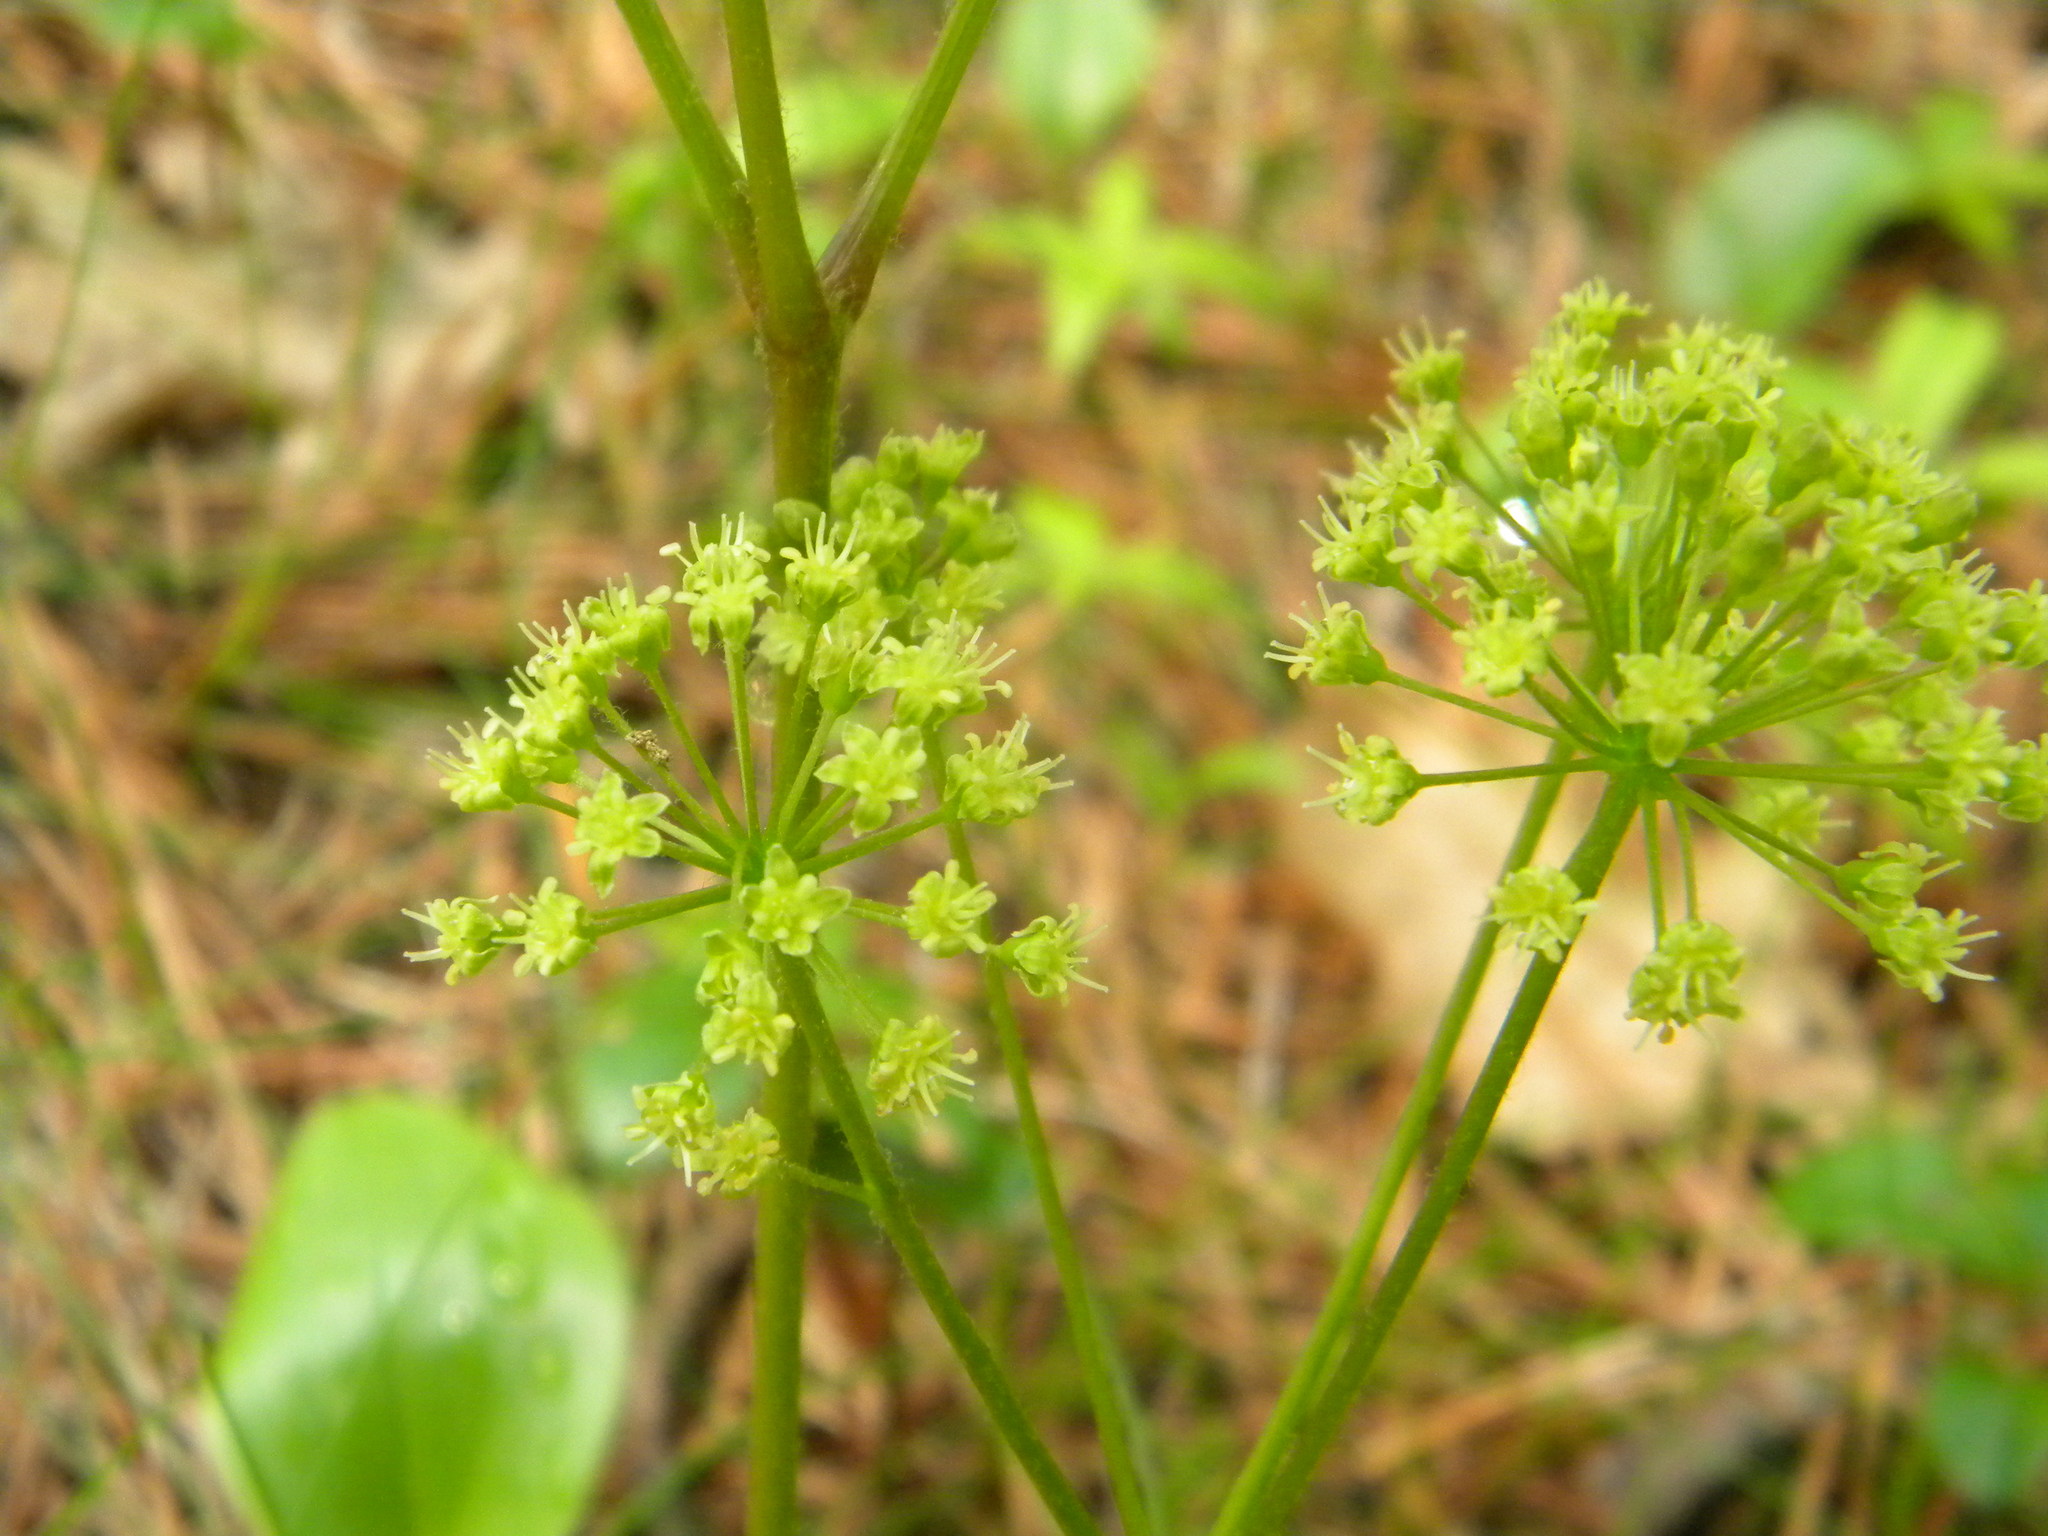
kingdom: Plantae
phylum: Tracheophyta
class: Magnoliopsida
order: Apiales
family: Araliaceae
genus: Aralia
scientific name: Aralia nudicaulis
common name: Wild sarsaparilla
